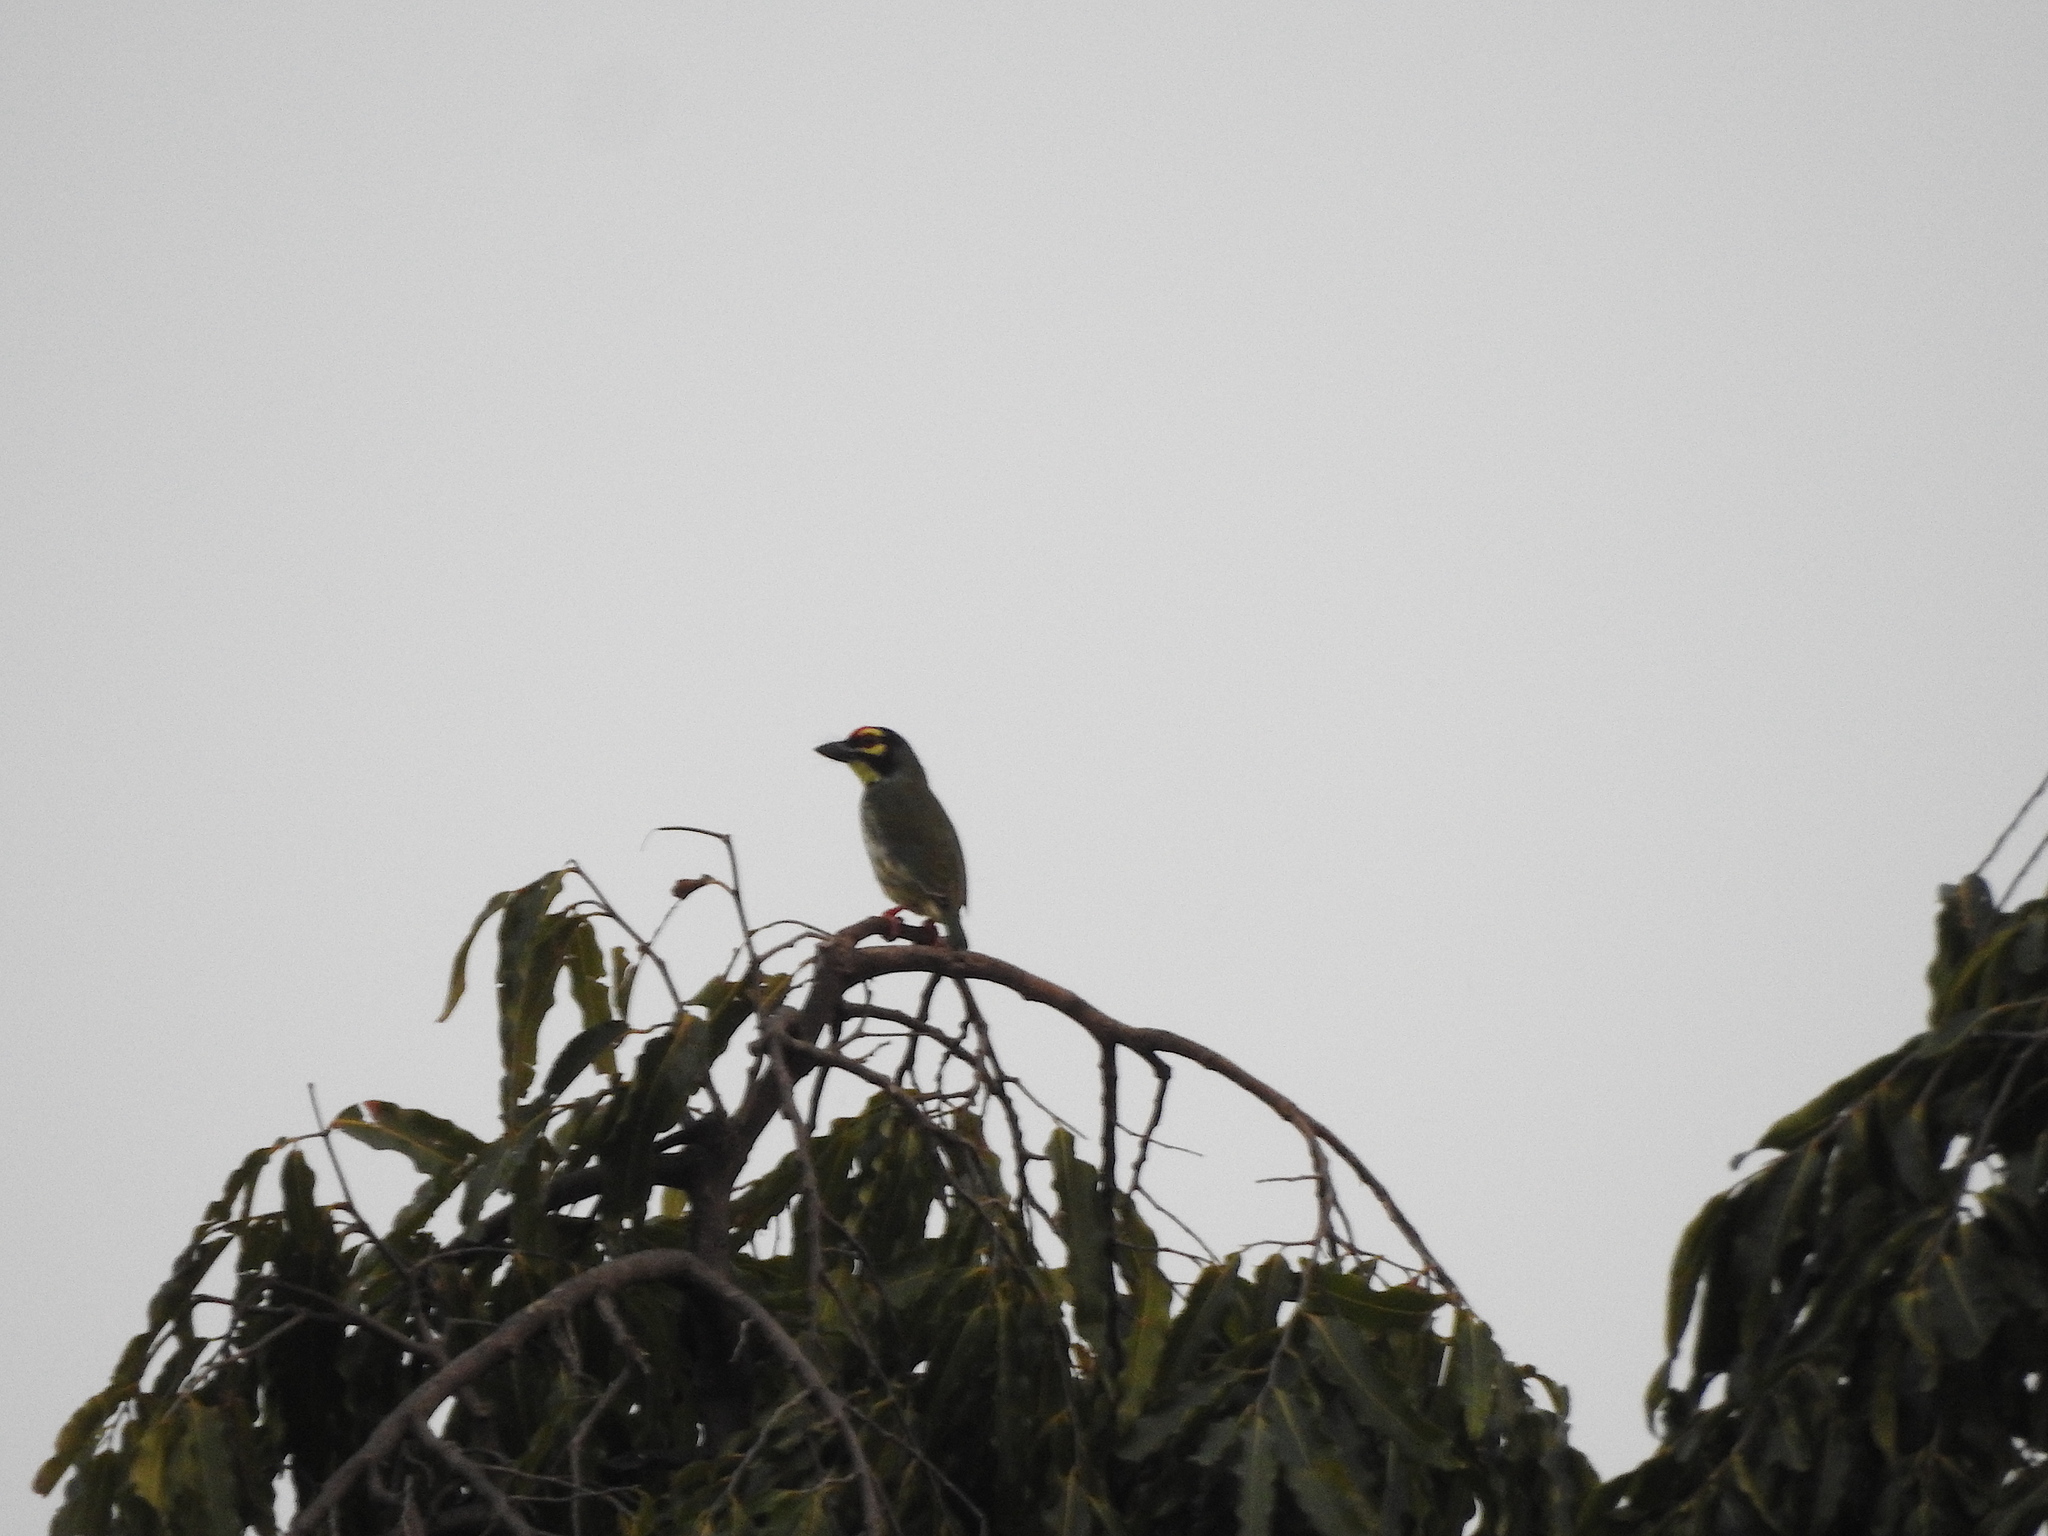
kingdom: Animalia
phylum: Chordata
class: Aves
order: Piciformes
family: Megalaimidae
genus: Psilopogon
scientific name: Psilopogon haemacephalus
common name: Coppersmith barbet
